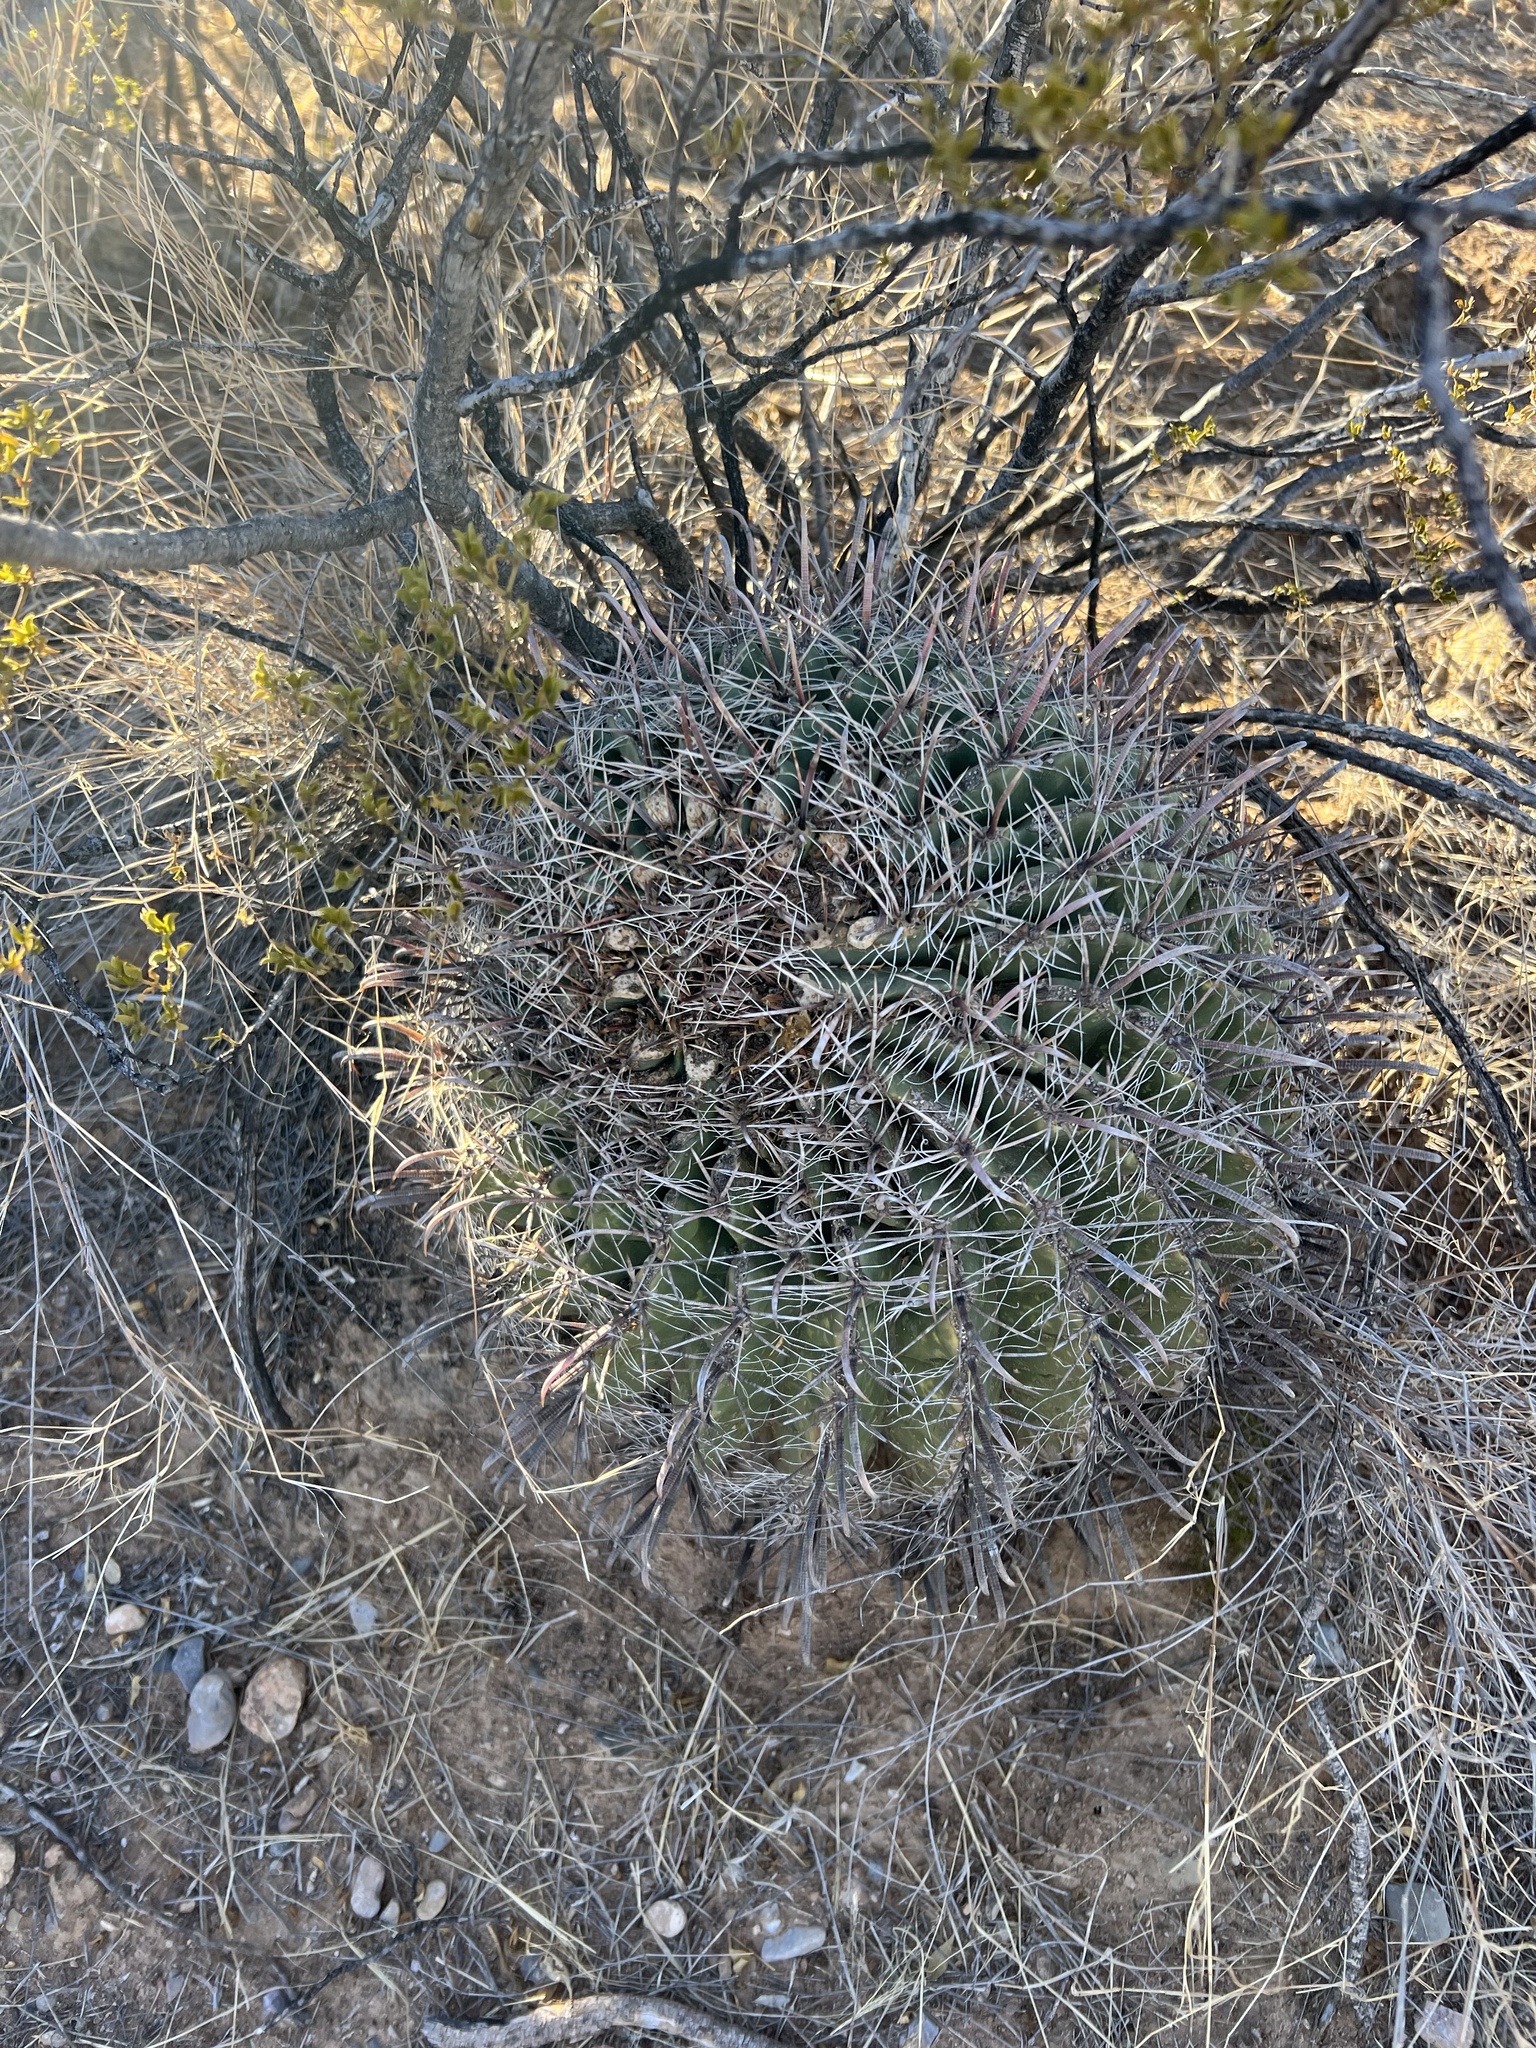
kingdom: Plantae
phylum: Tracheophyta
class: Magnoliopsida
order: Caryophyllales
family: Cactaceae
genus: Ferocactus
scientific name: Ferocactus wislizeni
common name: Candy barrel cactus
